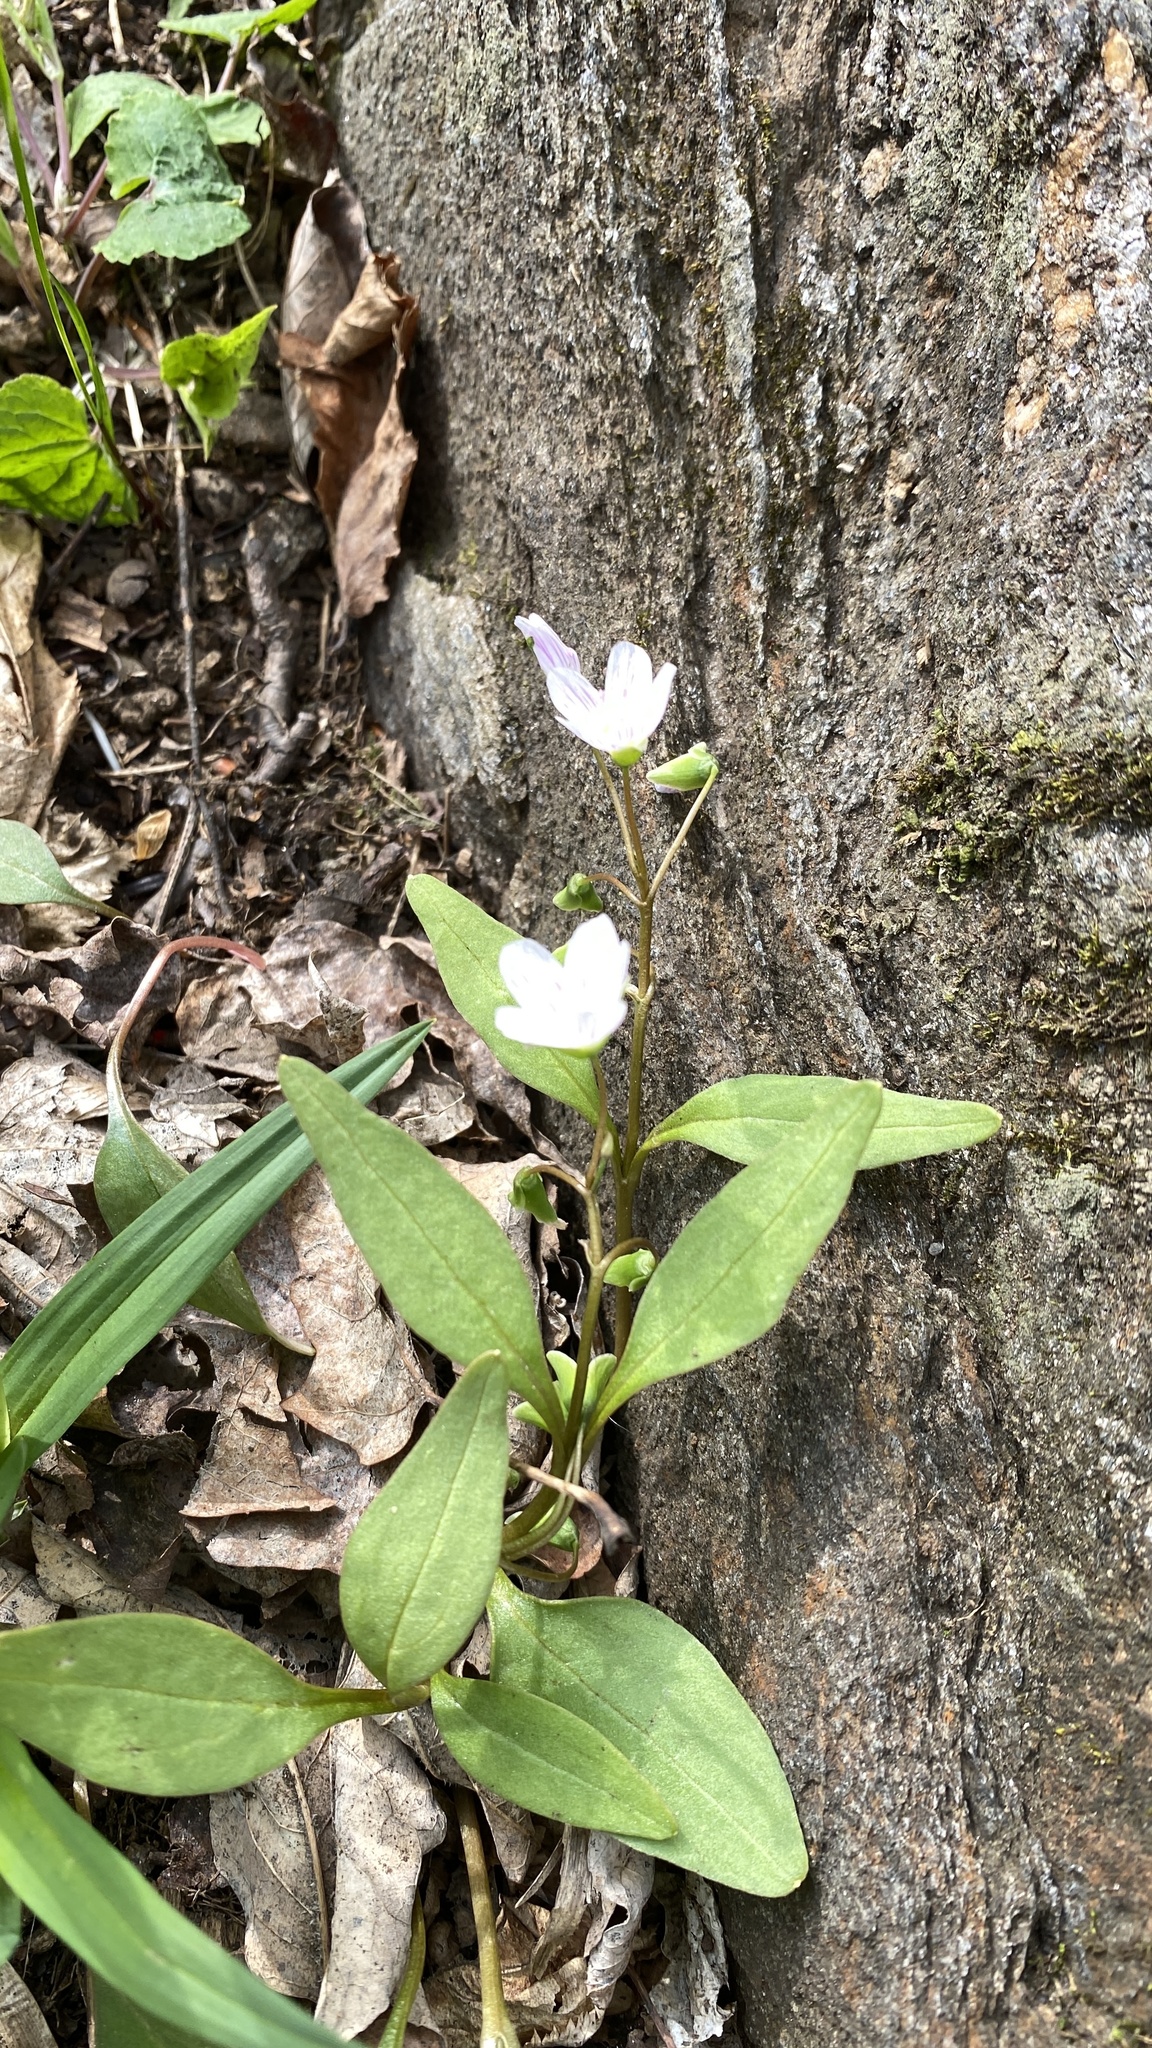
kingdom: Plantae
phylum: Tracheophyta
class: Magnoliopsida
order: Caryophyllales
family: Montiaceae
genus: Claytonia
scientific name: Claytonia caroliniana
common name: Carolina spring beauty
